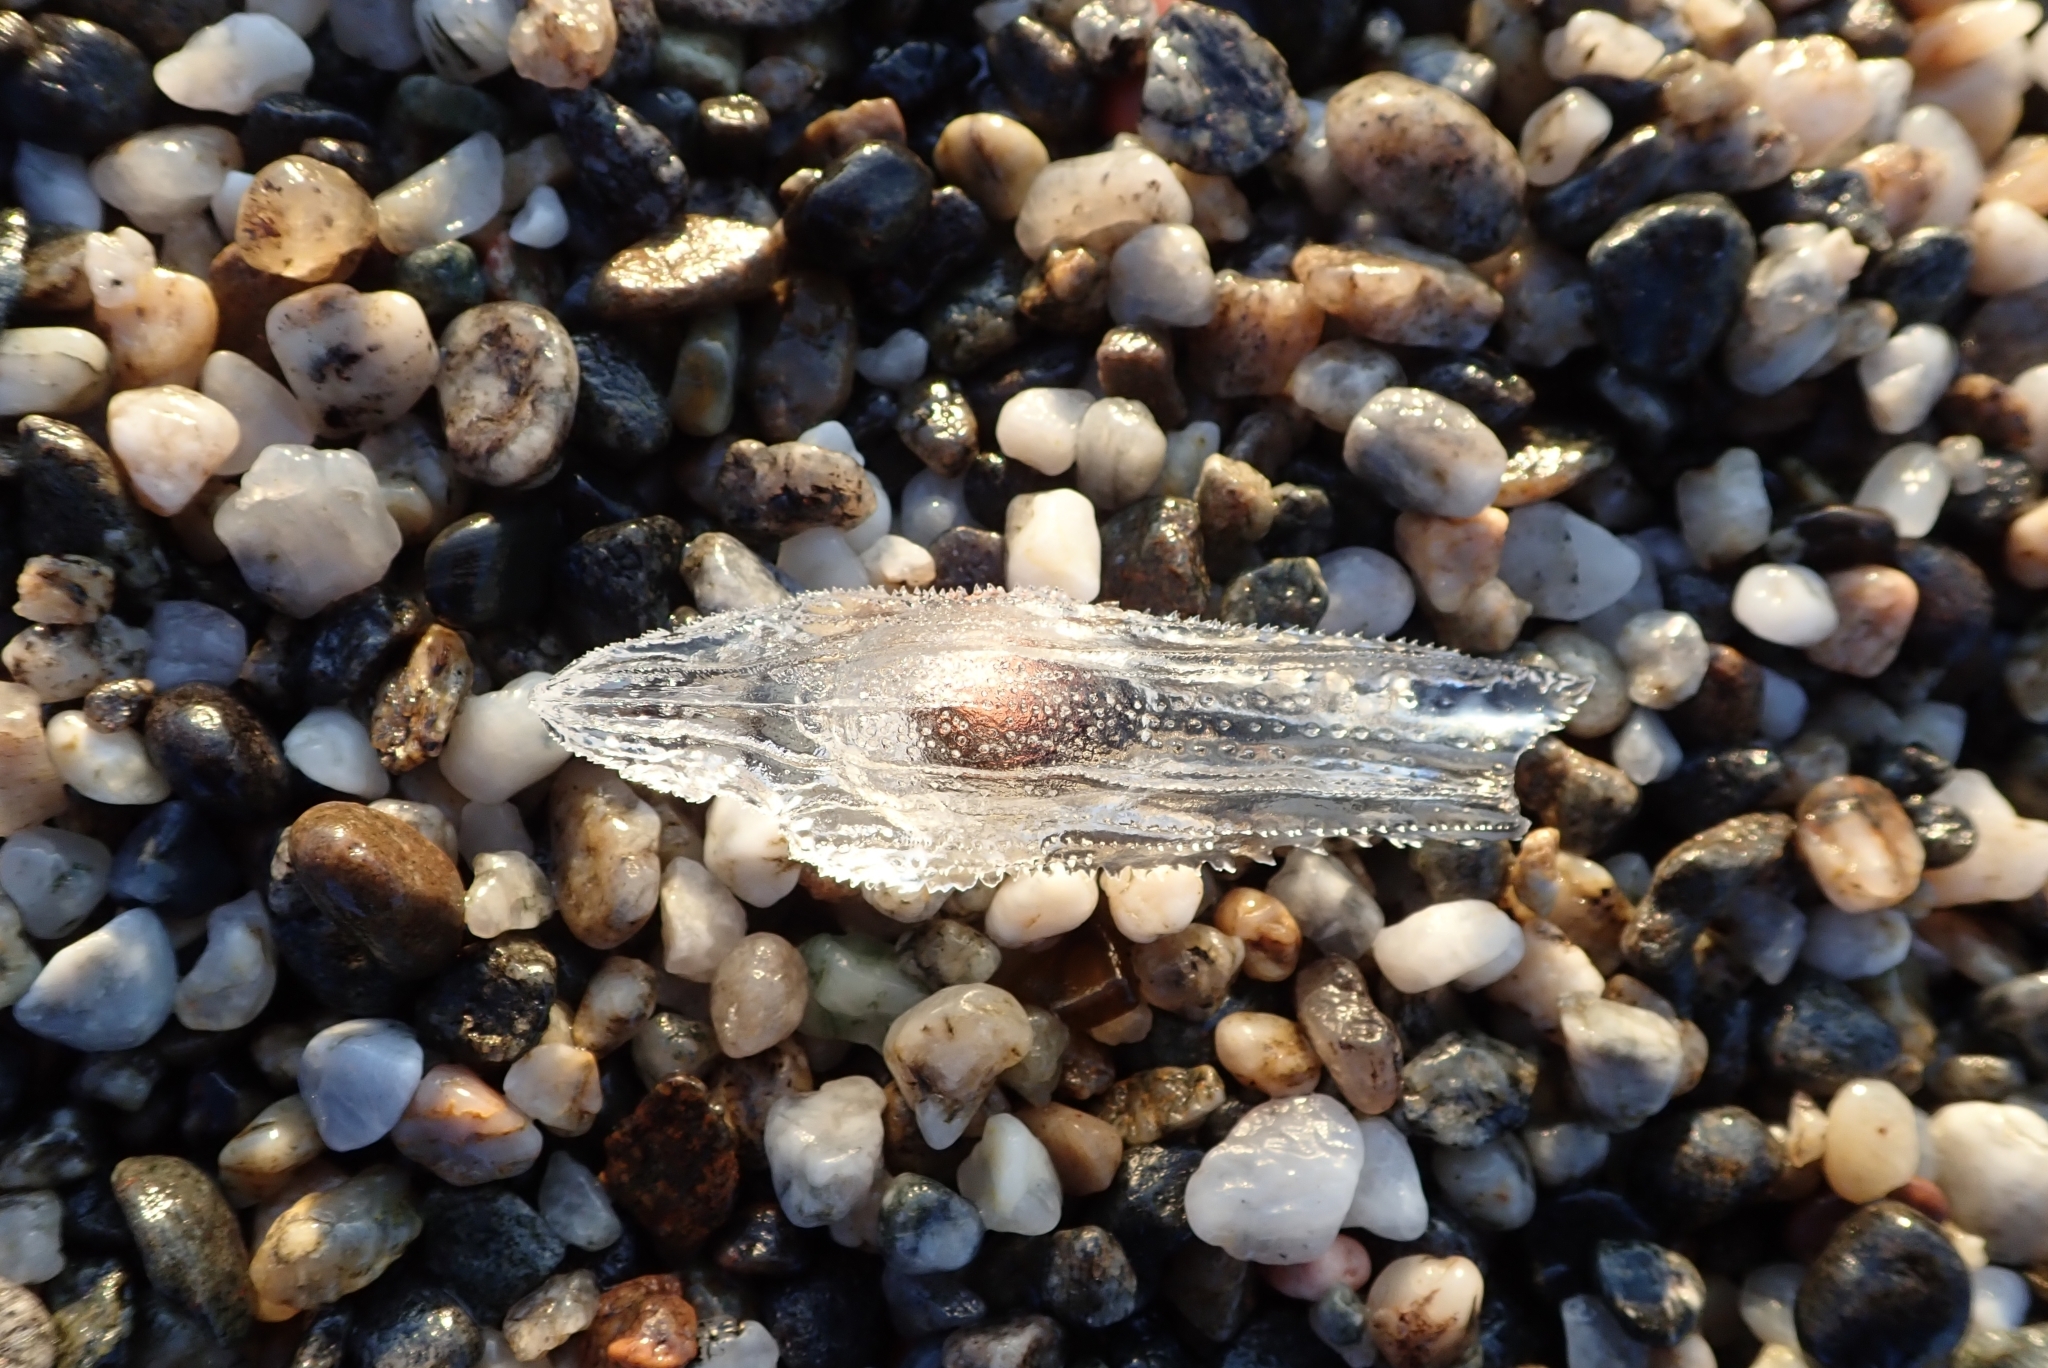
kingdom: Animalia
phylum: Mollusca
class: Gastropoda
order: Pteropoda
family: Cymbuliidae
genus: Cymbulia
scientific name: Cymbulia peronii
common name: Sword of venus
